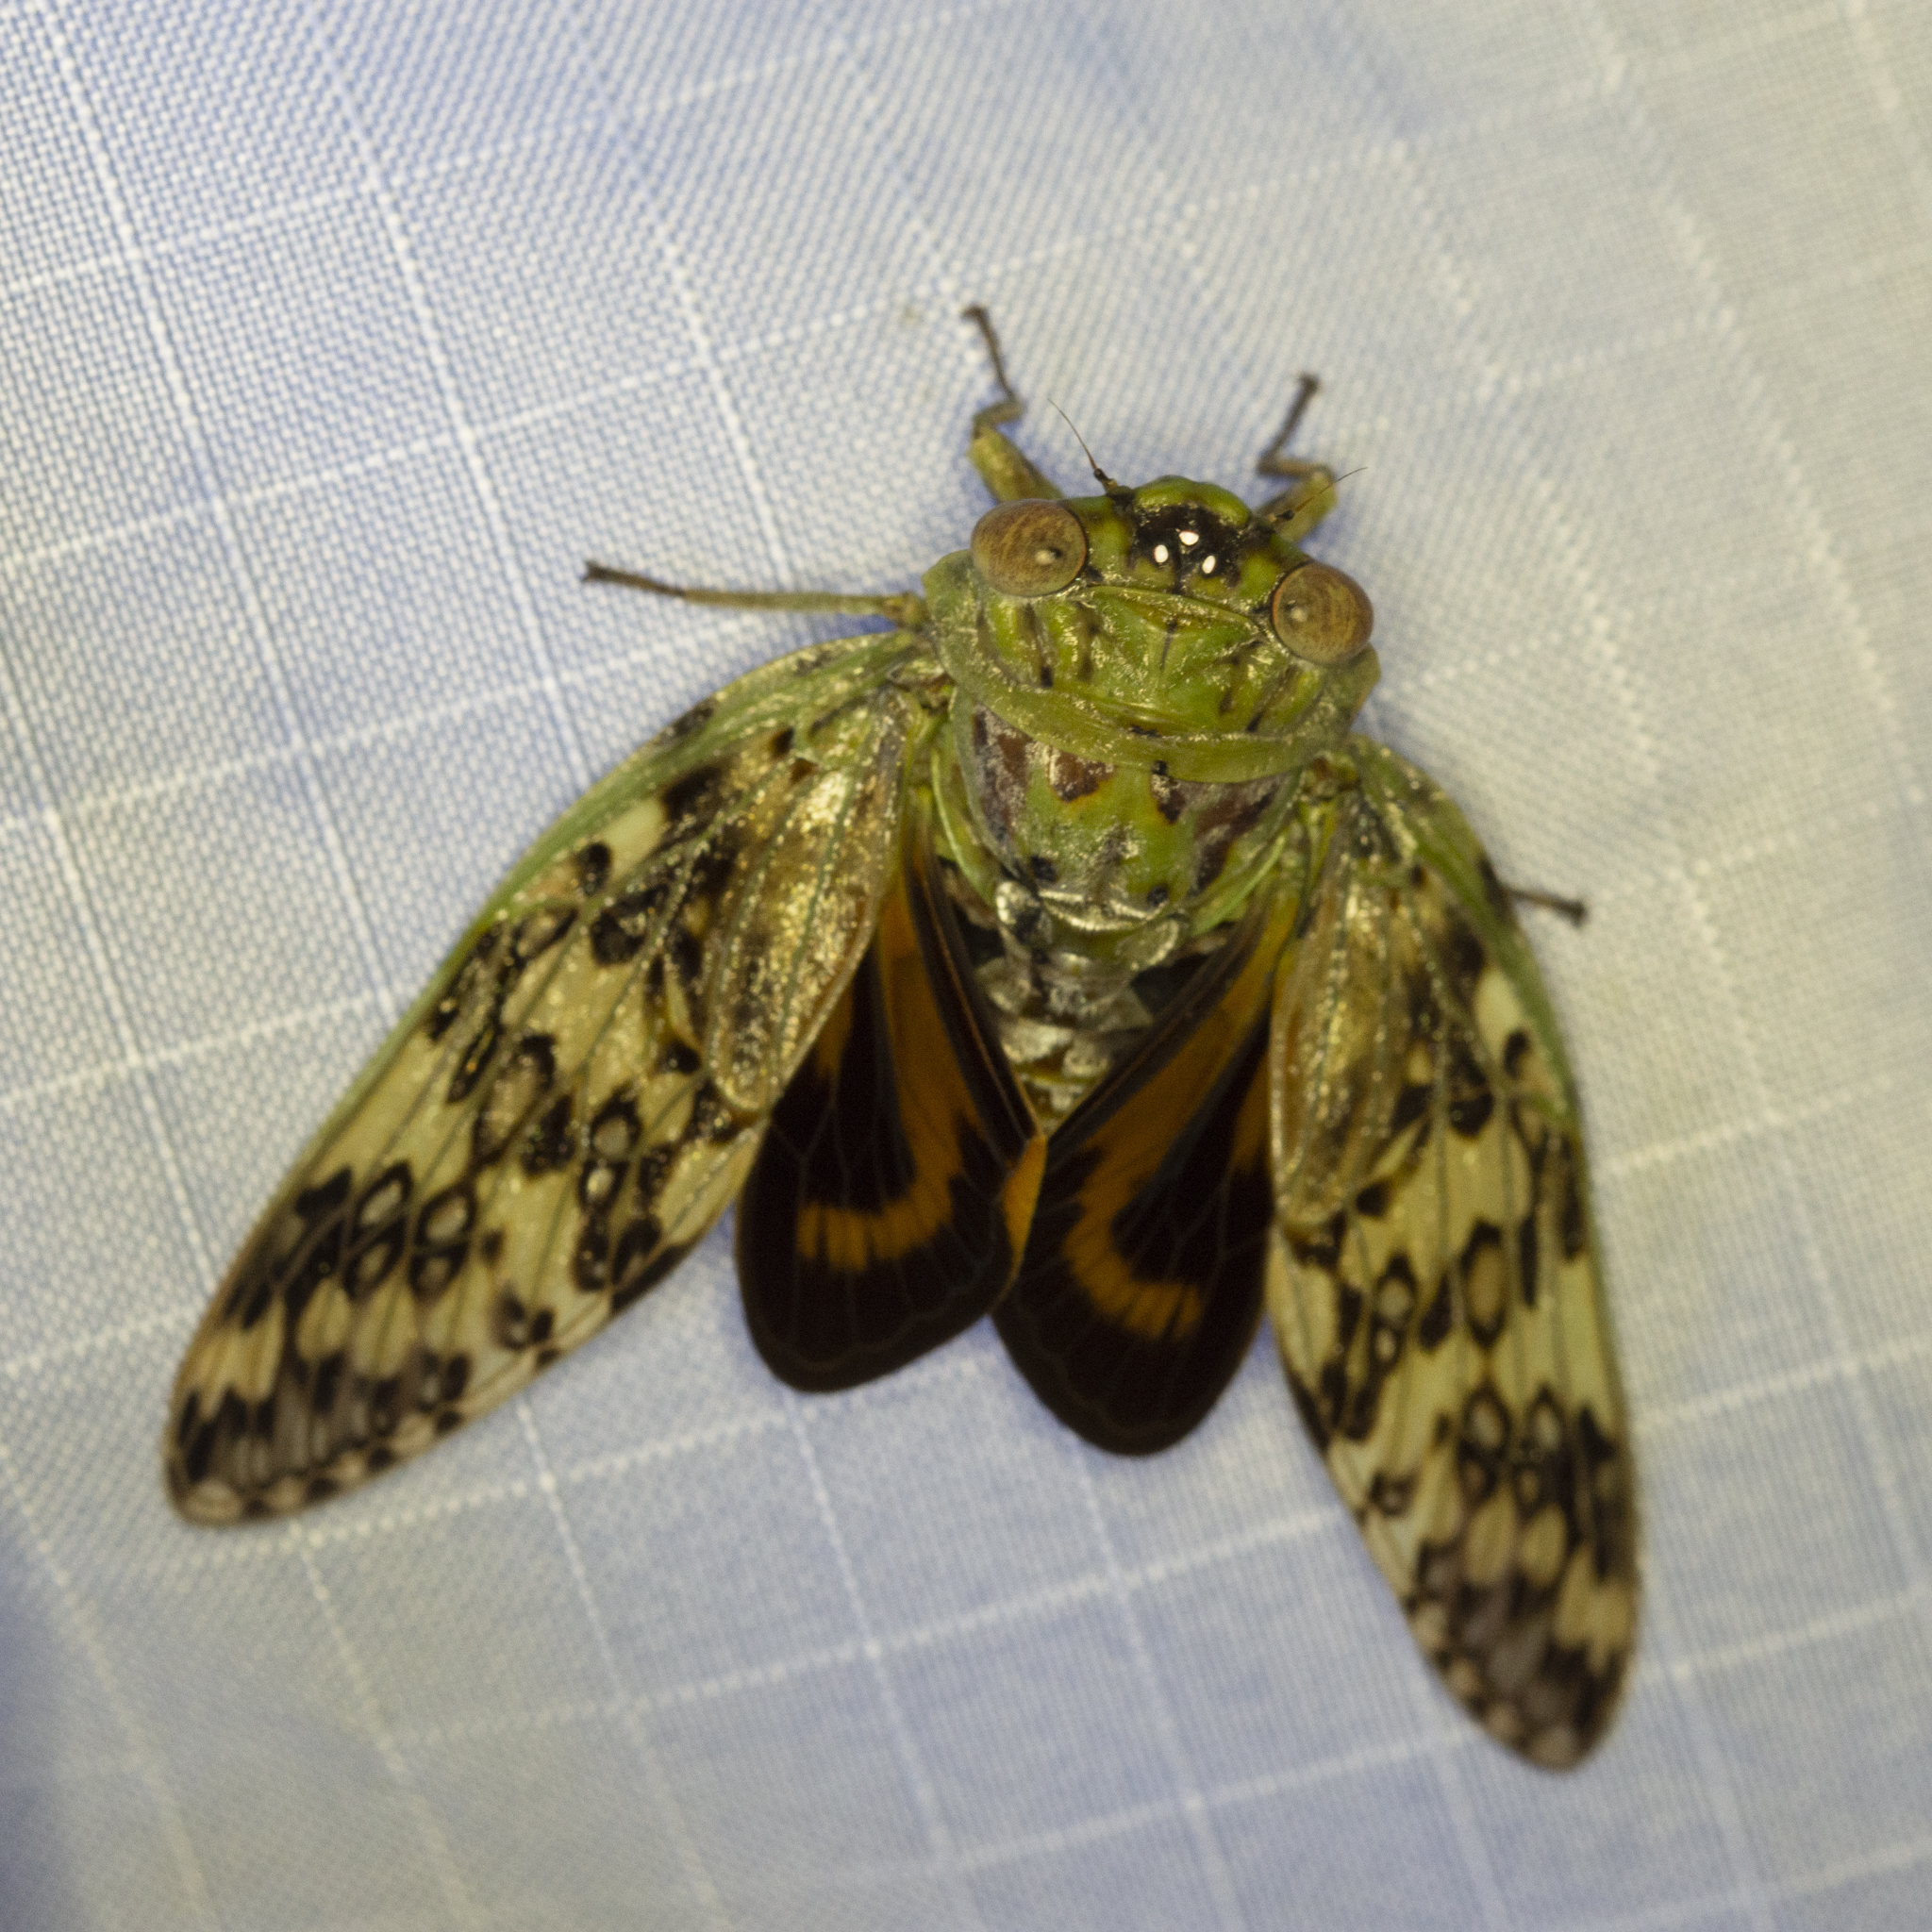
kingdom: Animalia
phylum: Arthropoda
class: Insecta
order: Hemiptera
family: Cicadidae
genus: Hamza
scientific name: Hamza ciliaris
